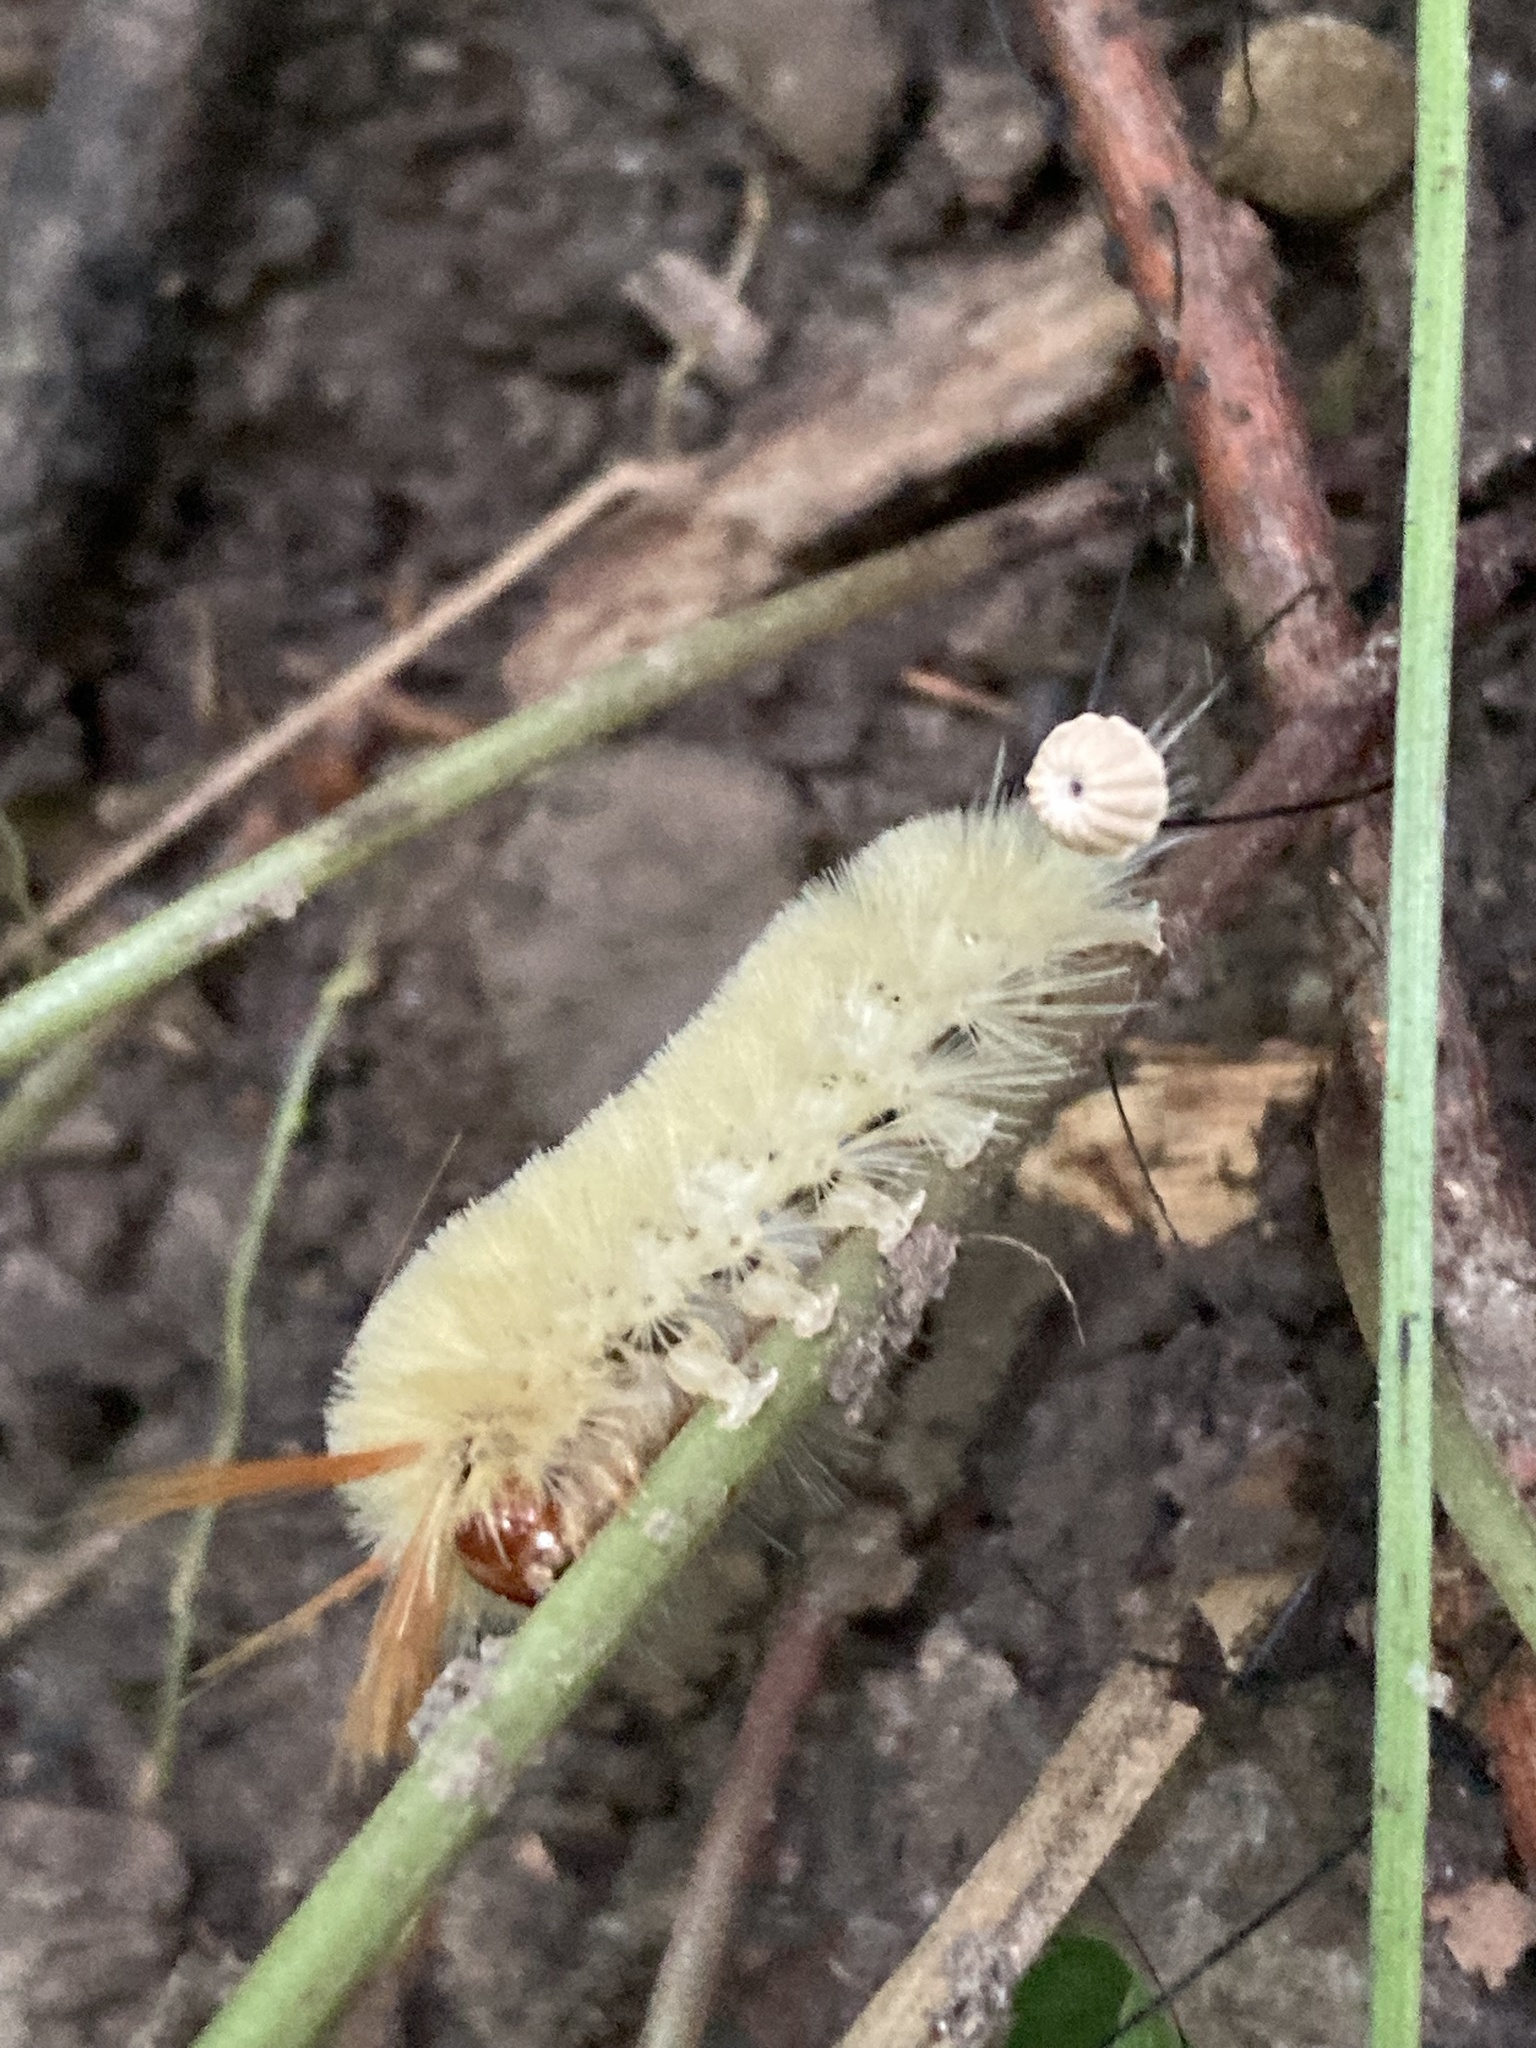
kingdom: Animalia
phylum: Arthropoda
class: Insecta
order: Lepidoptera
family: Erebidae
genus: Halysidota
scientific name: Halysidota harrisii
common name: Sycamore tussock moth
